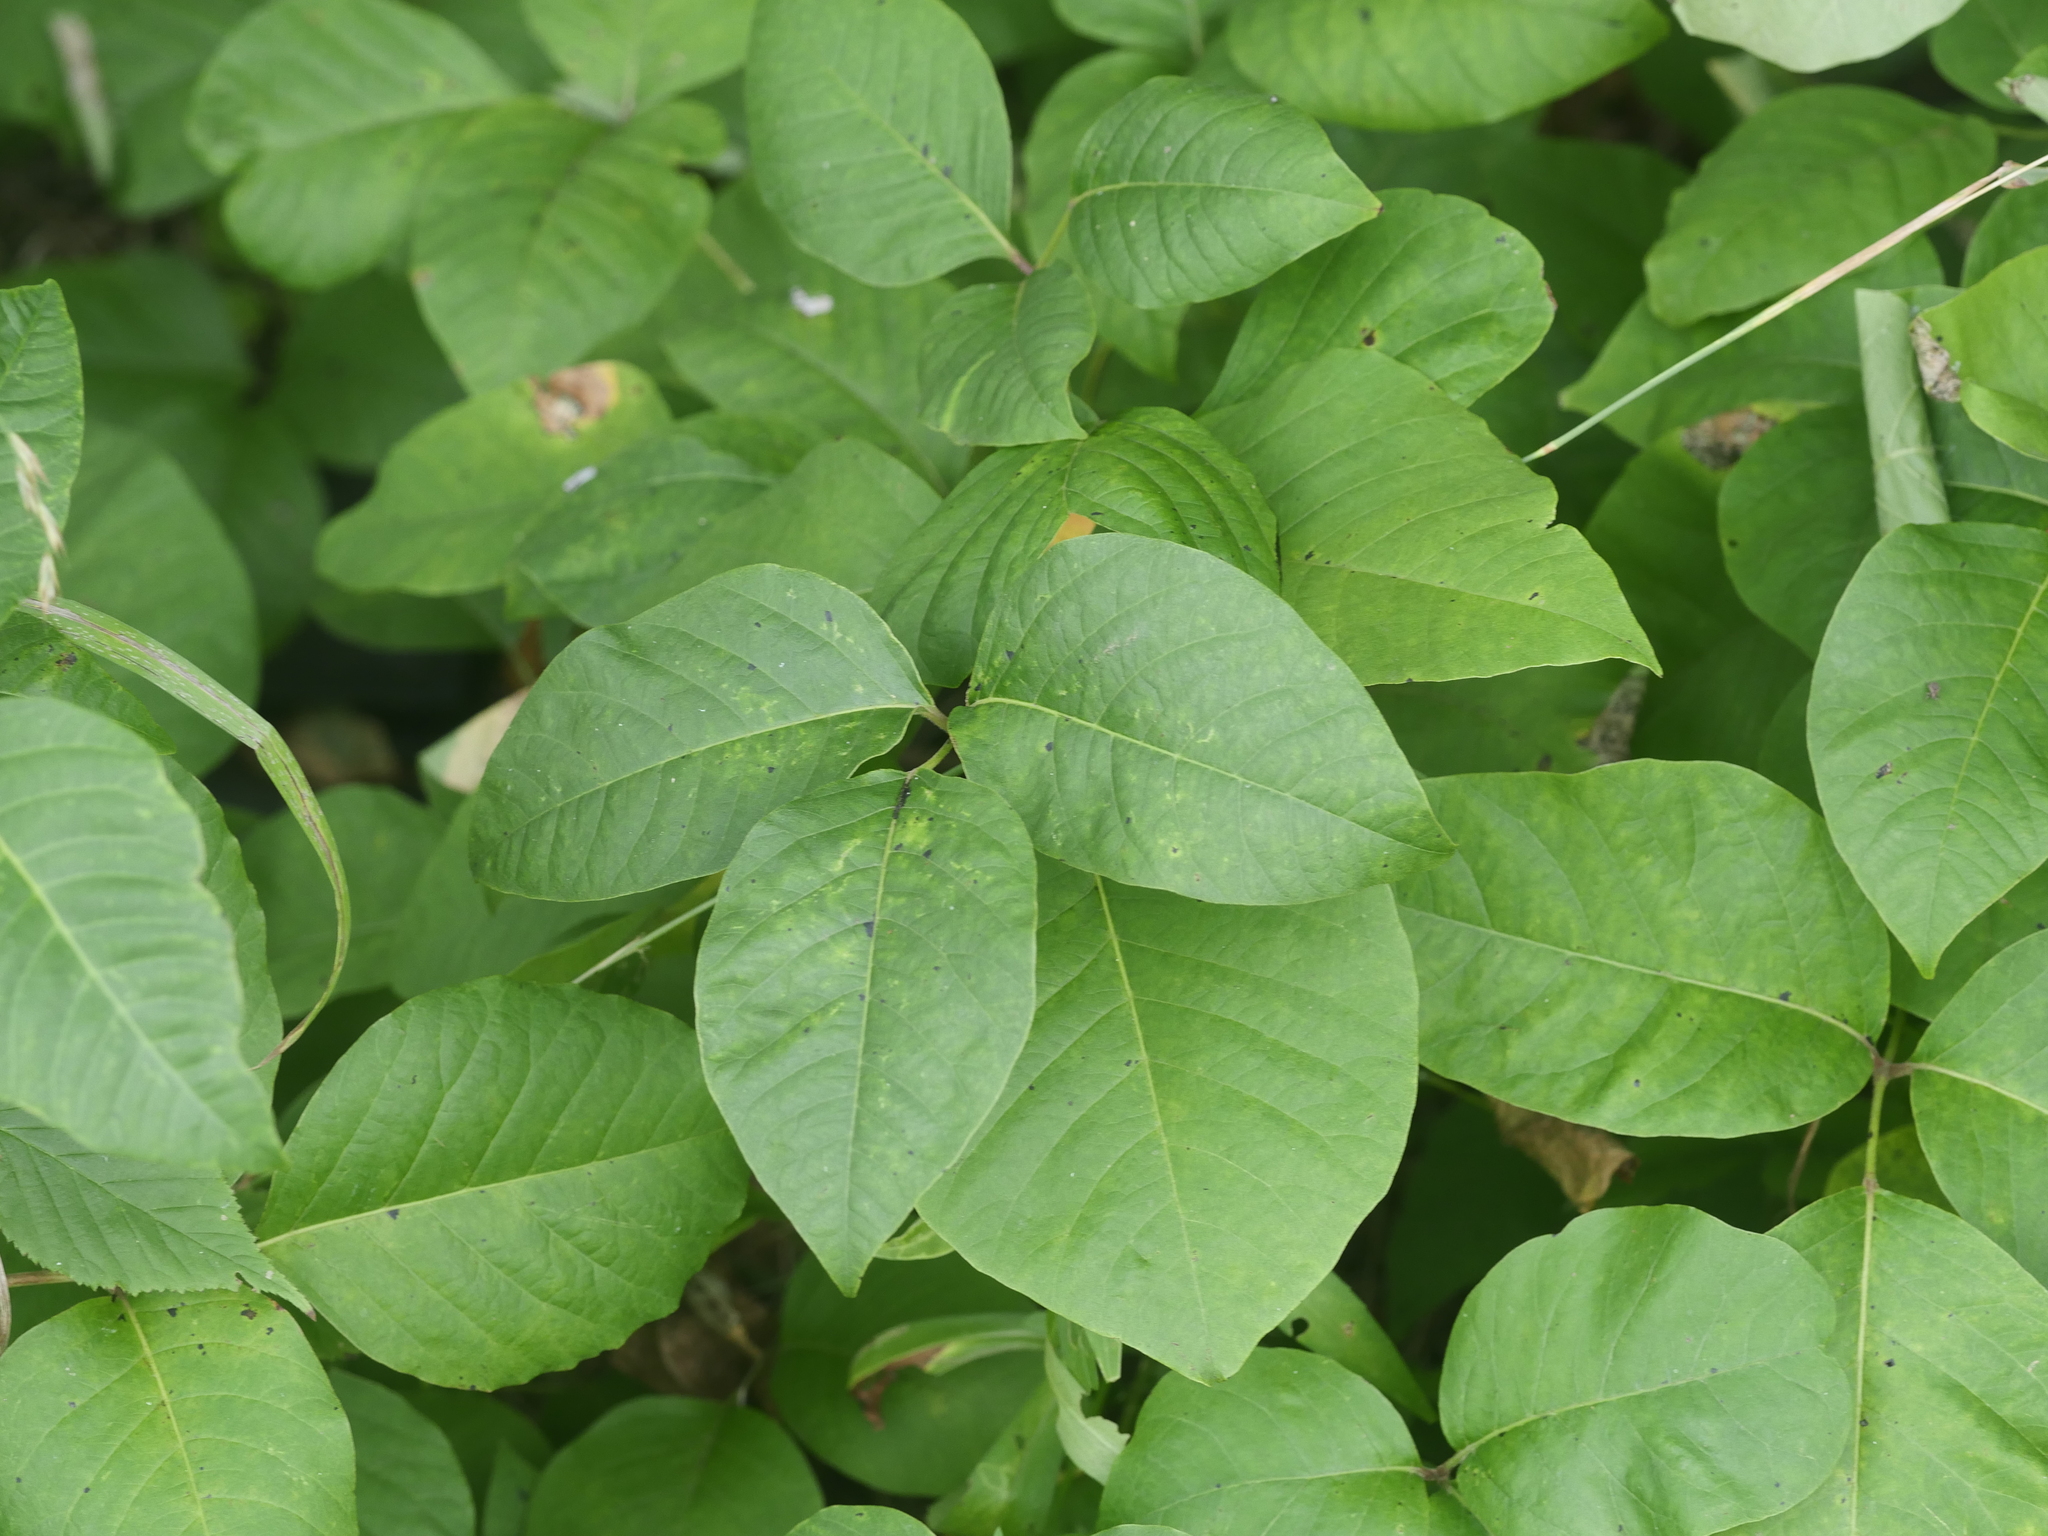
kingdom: Plantae
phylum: Tracheophyta
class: Magnoliopsida
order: Sapindales
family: Anacardiaceae
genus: Toxicodendron
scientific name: Toxicodendron rydbergii
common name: Rydberg's poison-ivy
